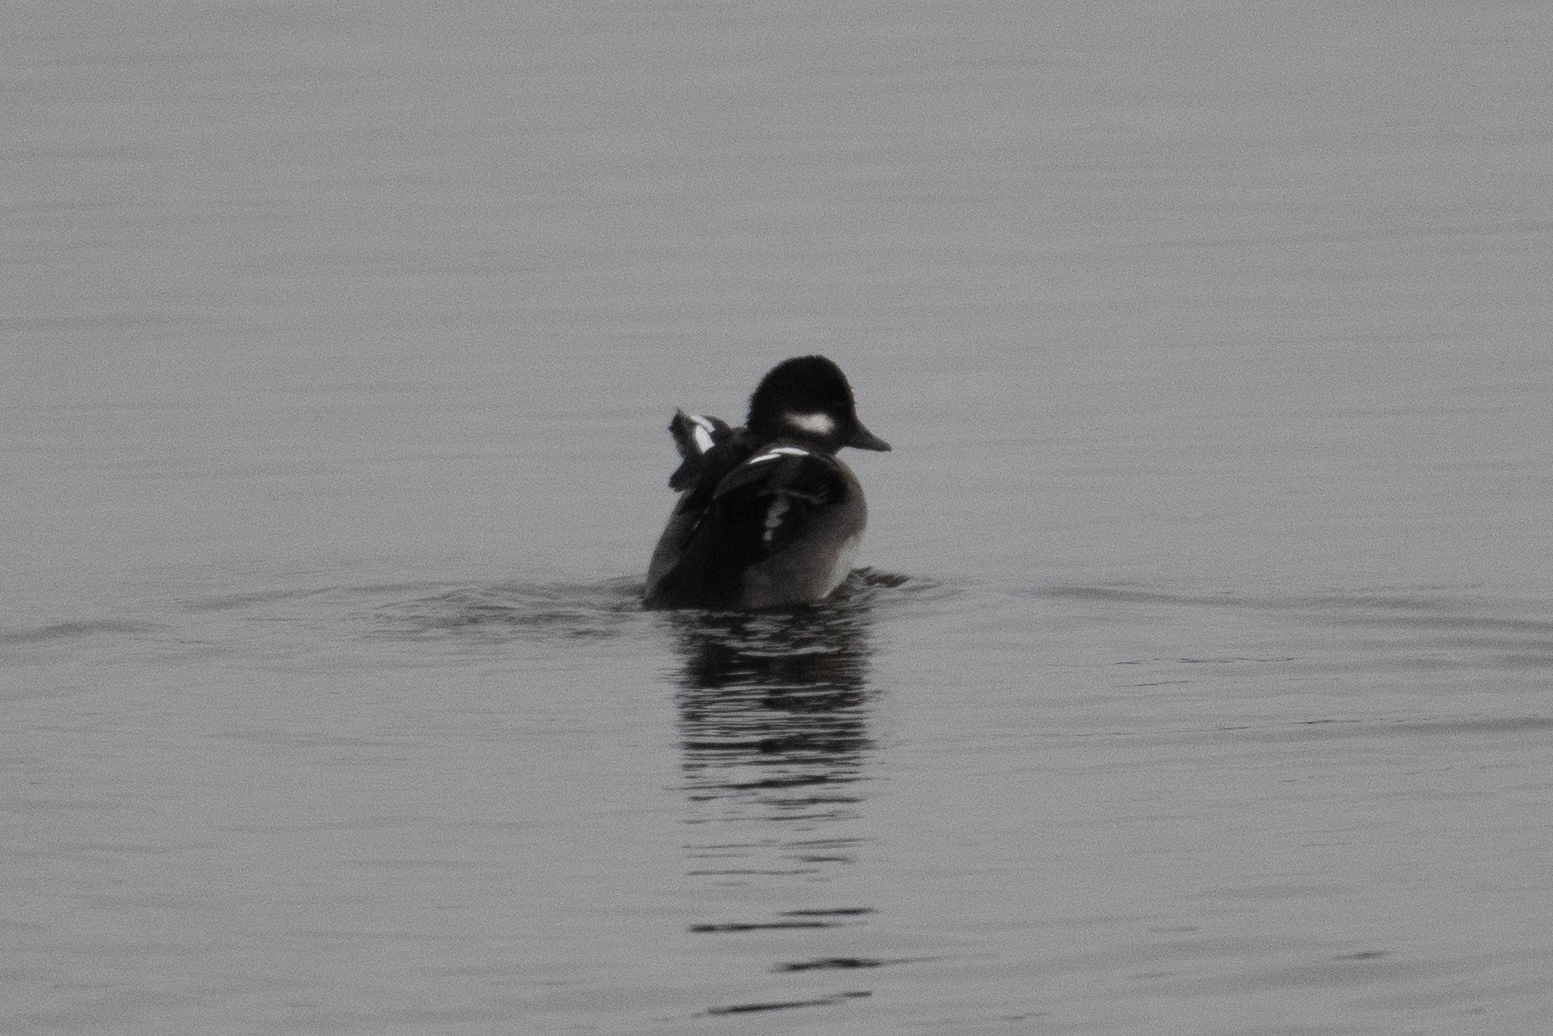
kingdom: Animalia
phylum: Chordata
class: Aves
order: Anseriformes
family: Anatidae
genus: Bucephala
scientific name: Bucephala albeola
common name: Bufflehead
